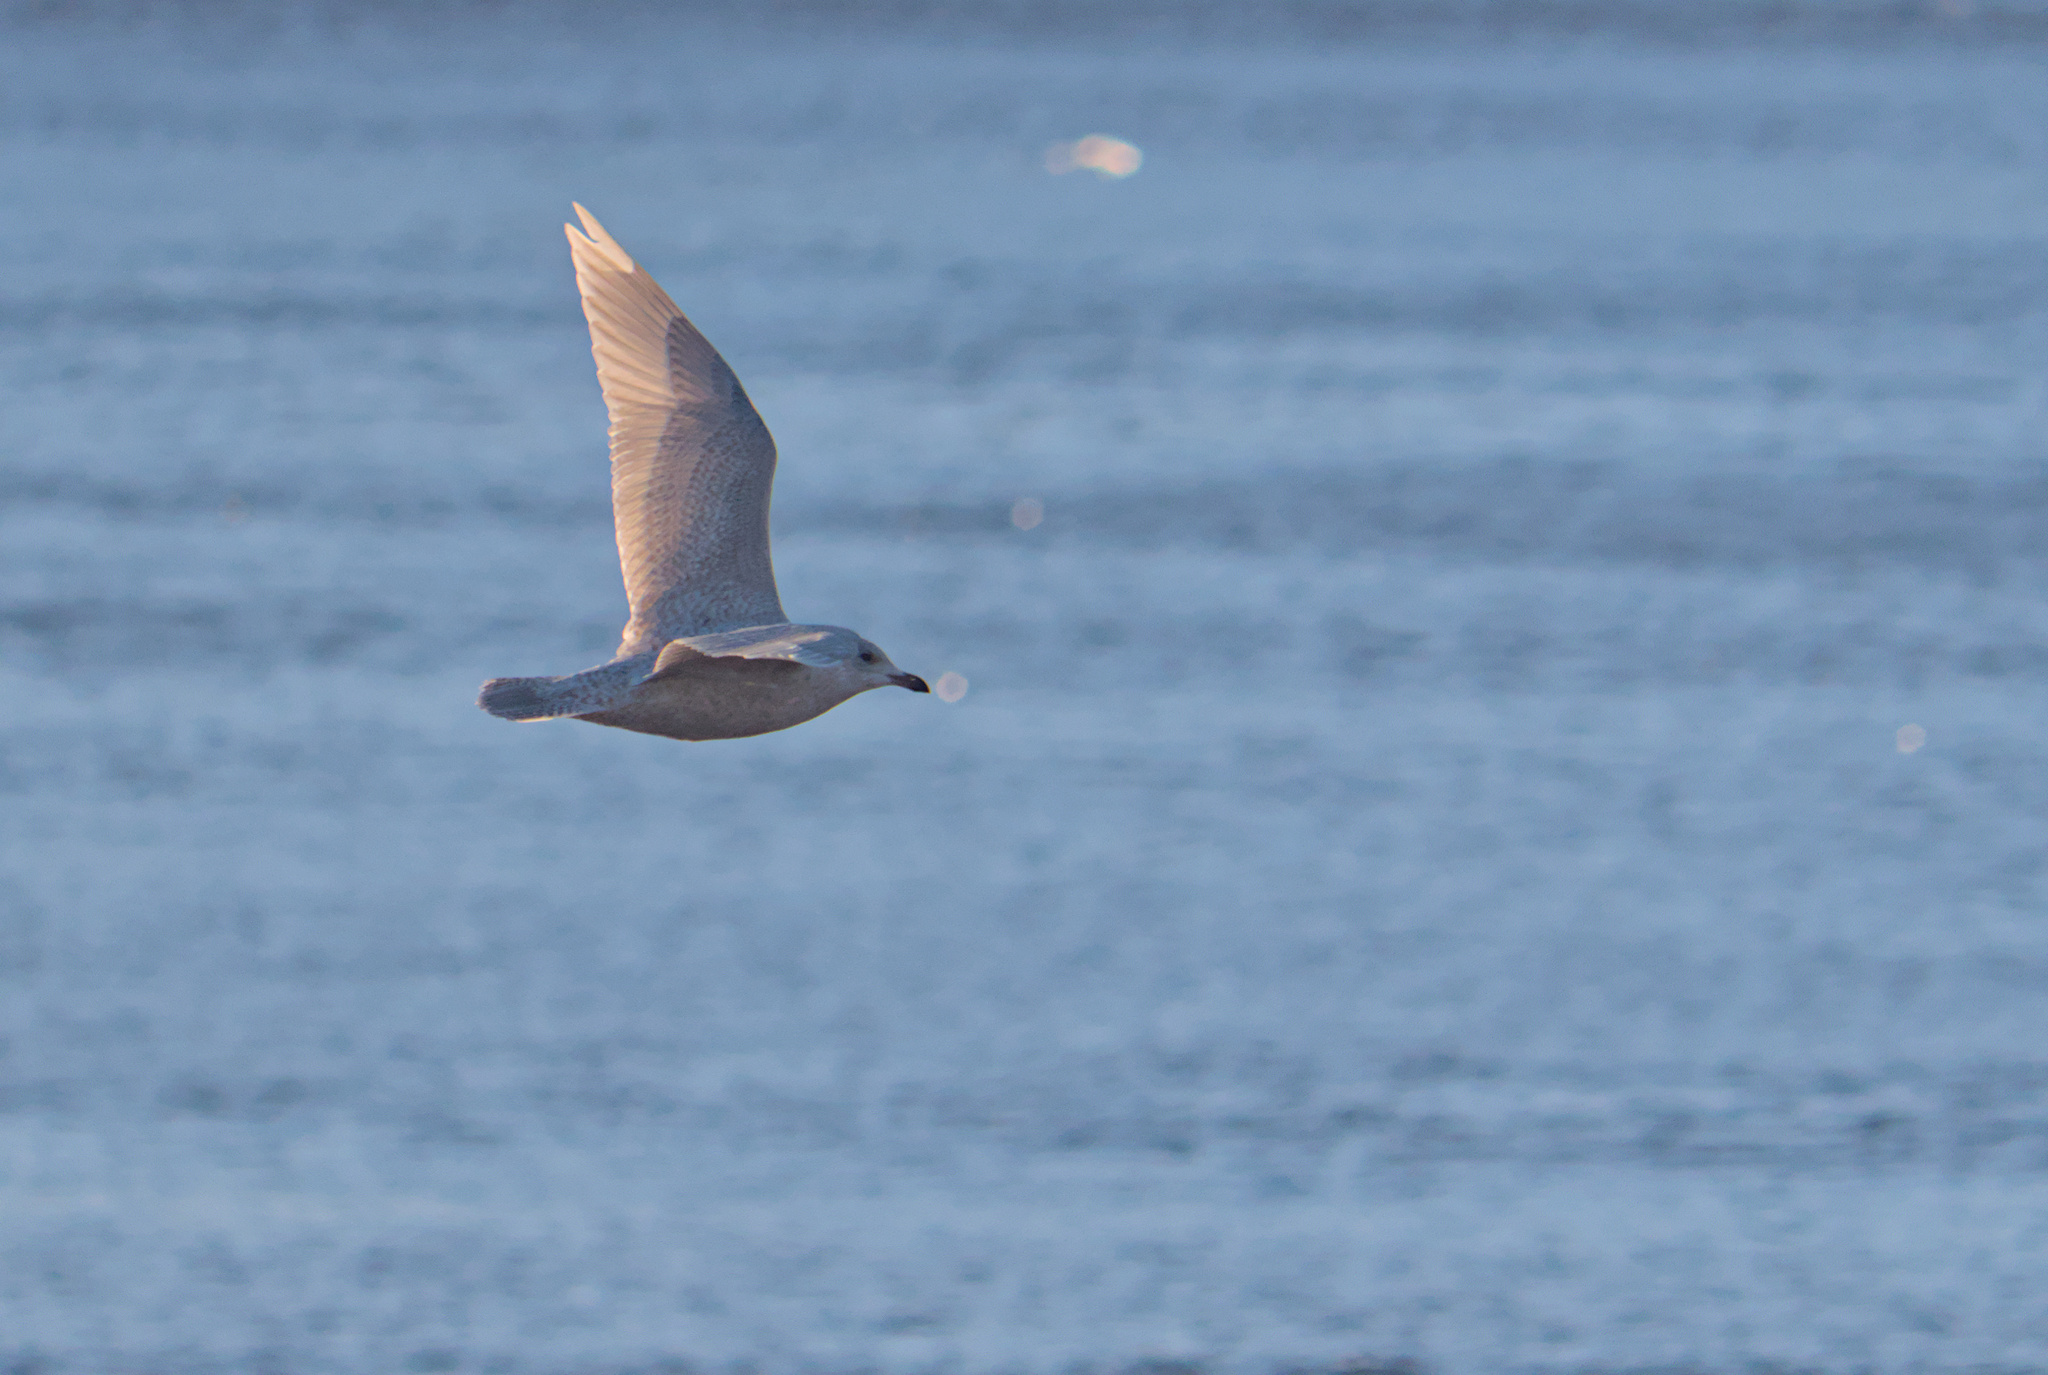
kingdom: Animalia
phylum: Chordata
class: Aves
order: Charadriiformes
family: Laridae
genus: Larus
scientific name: Larus glaucoides
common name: Iceland gull
